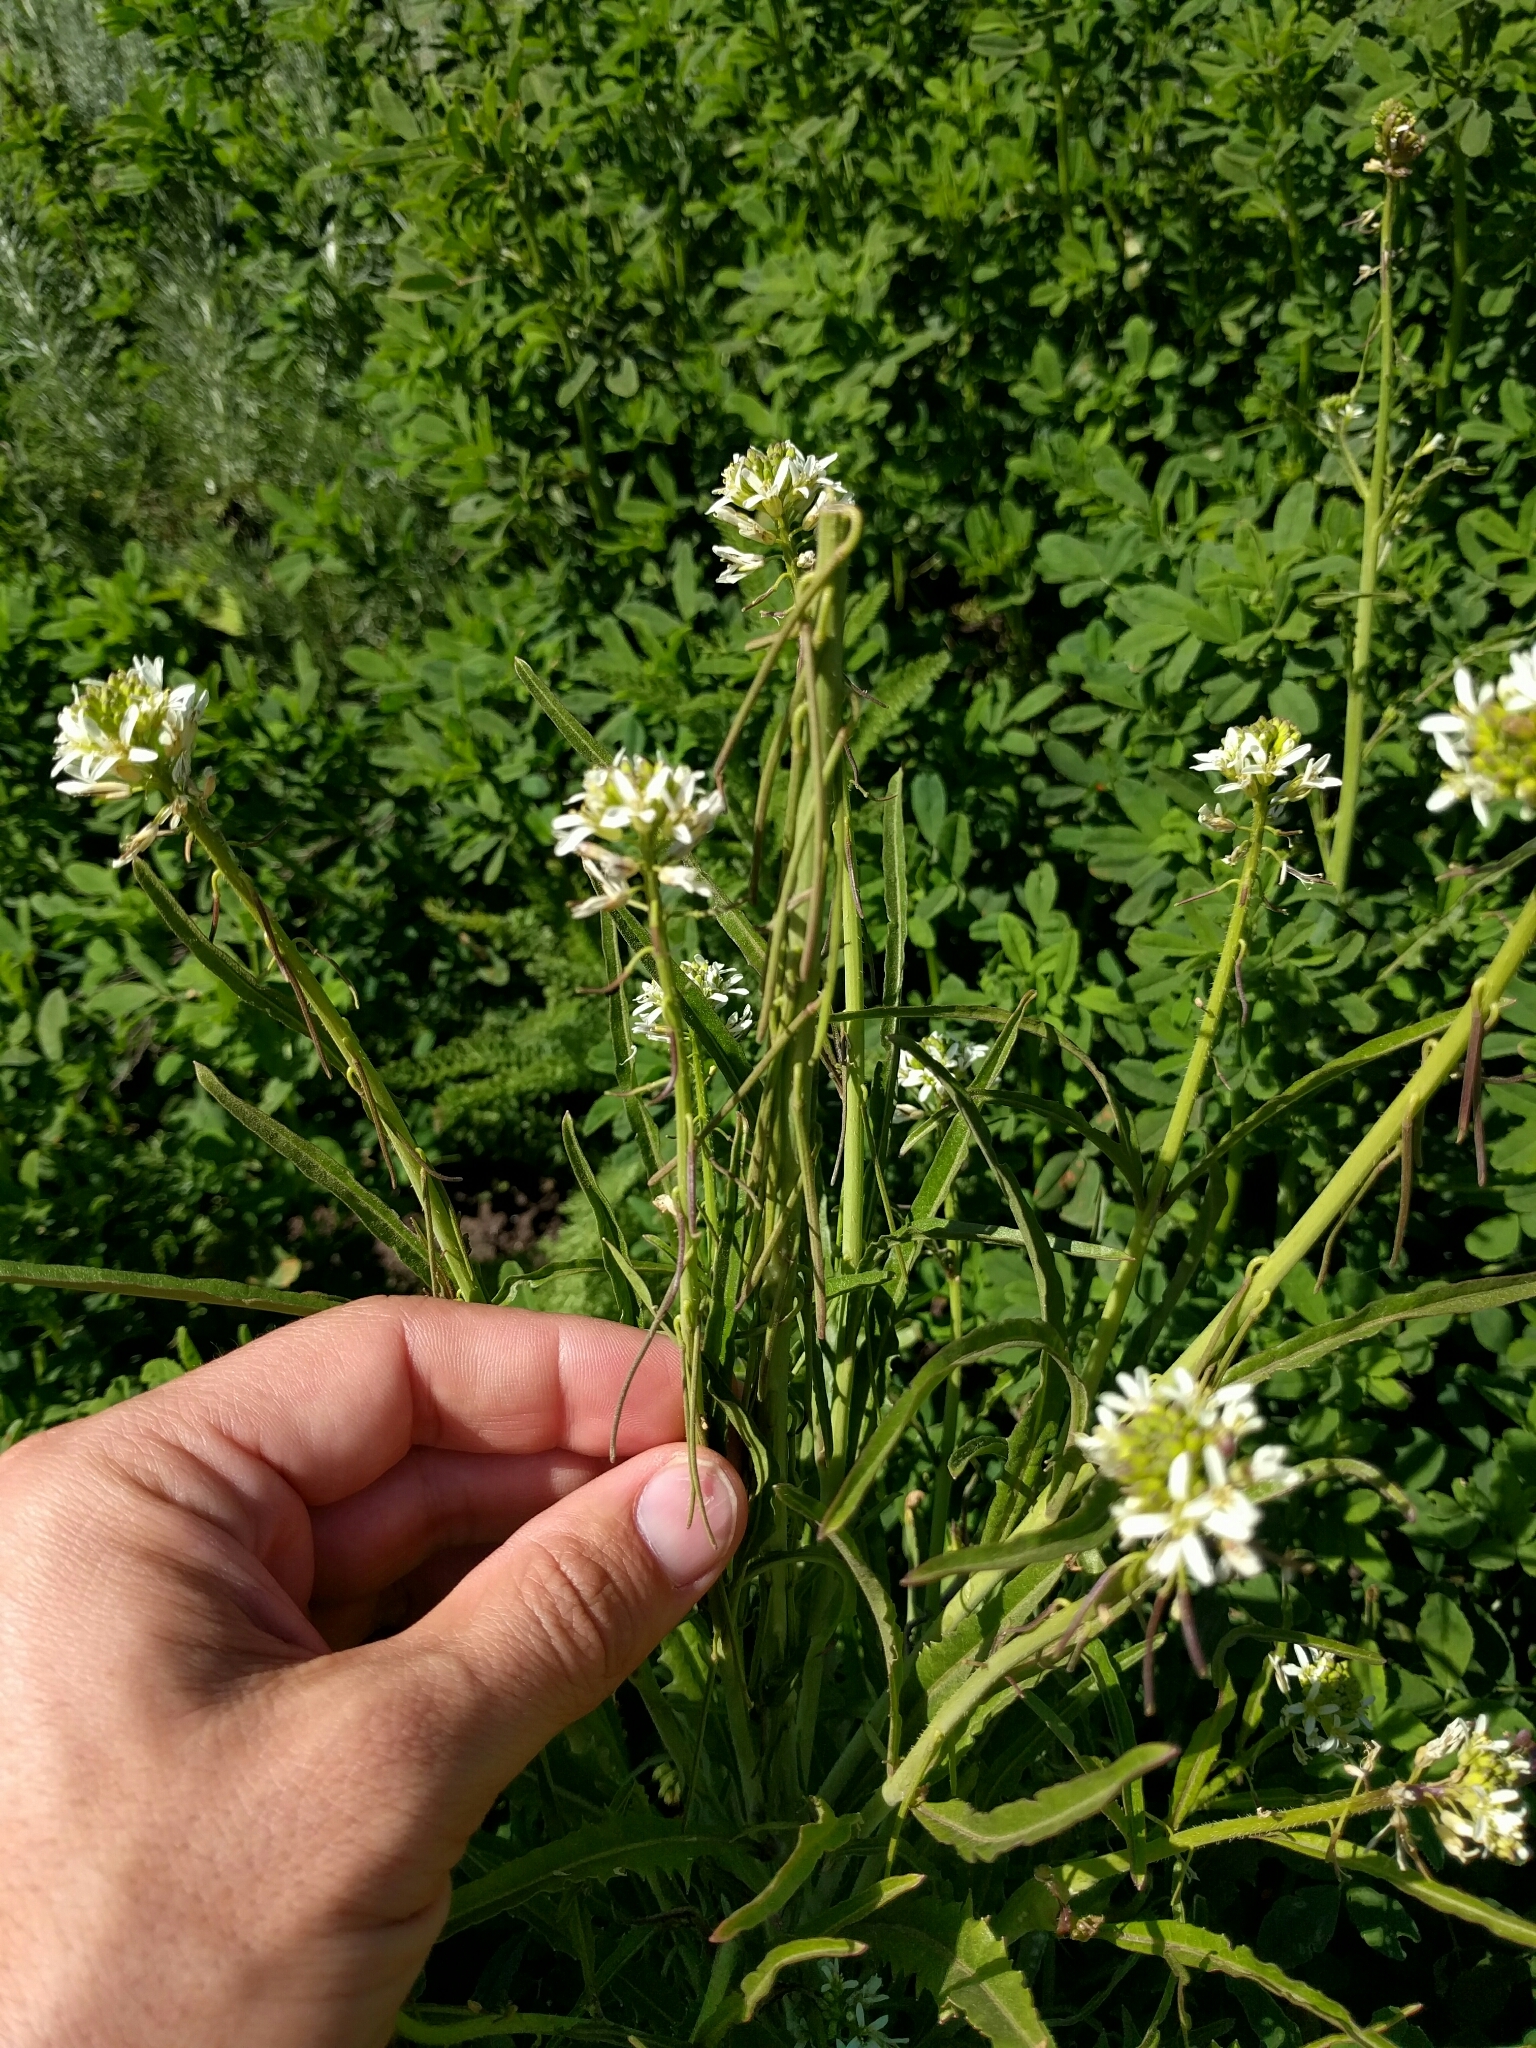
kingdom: Plantae
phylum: Tracheophyta
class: Magnoliopsida
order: Brassicales
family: Brassicaceae
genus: Streptanthus
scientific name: Streptanthus lasiophyllus
